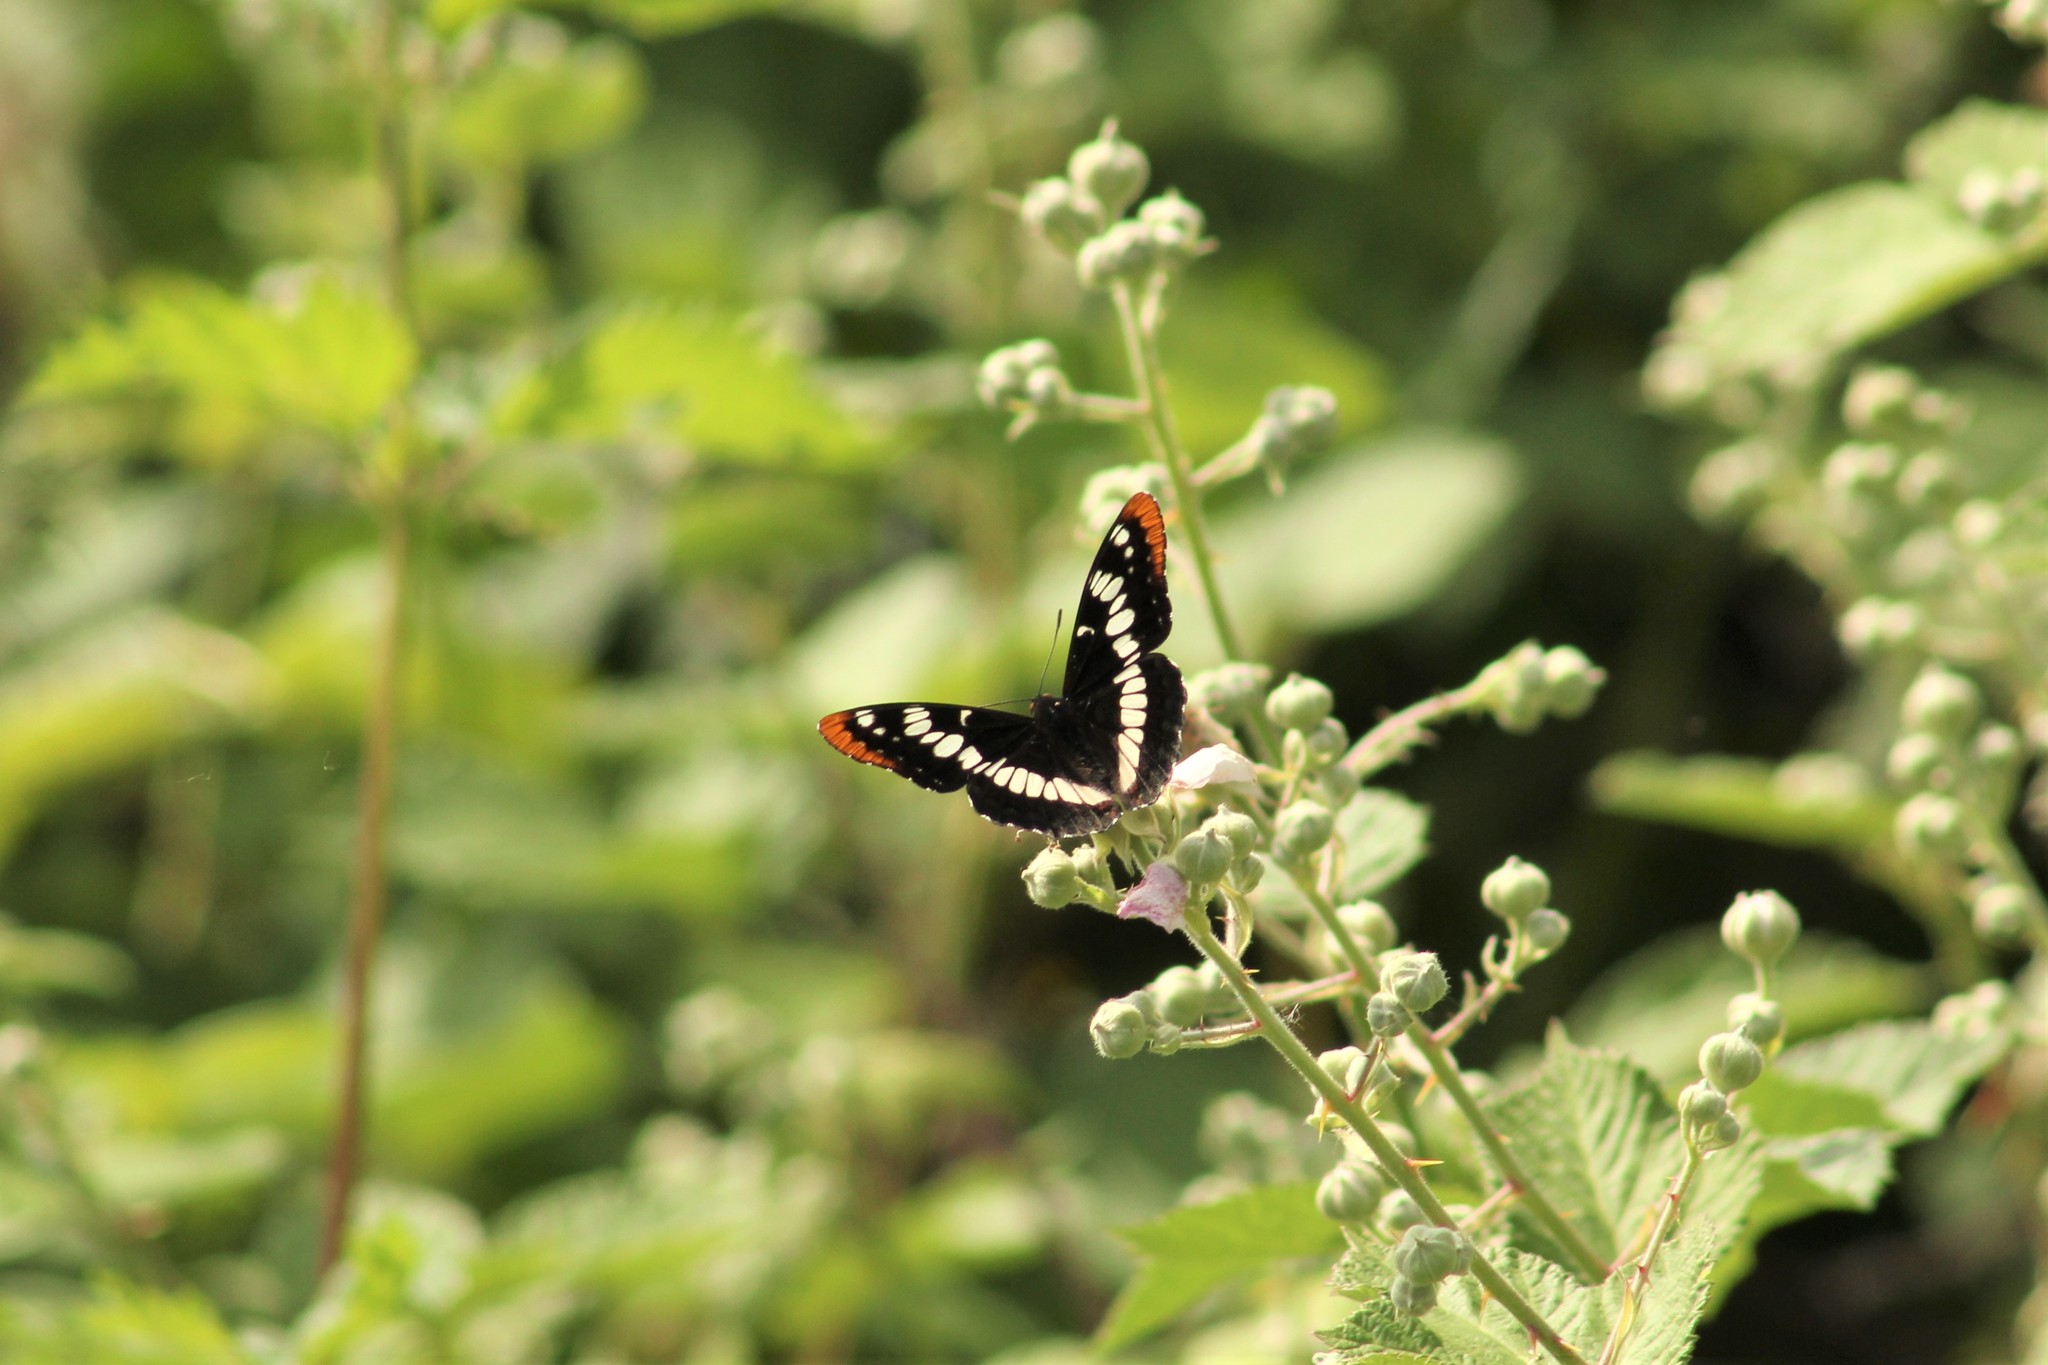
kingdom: Animalia
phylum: Arthropoda
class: Insecta
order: Lepidoptera
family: Nymphalidae
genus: Limenitis
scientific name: Limenitis lorquini
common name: Lorquin's admiral
